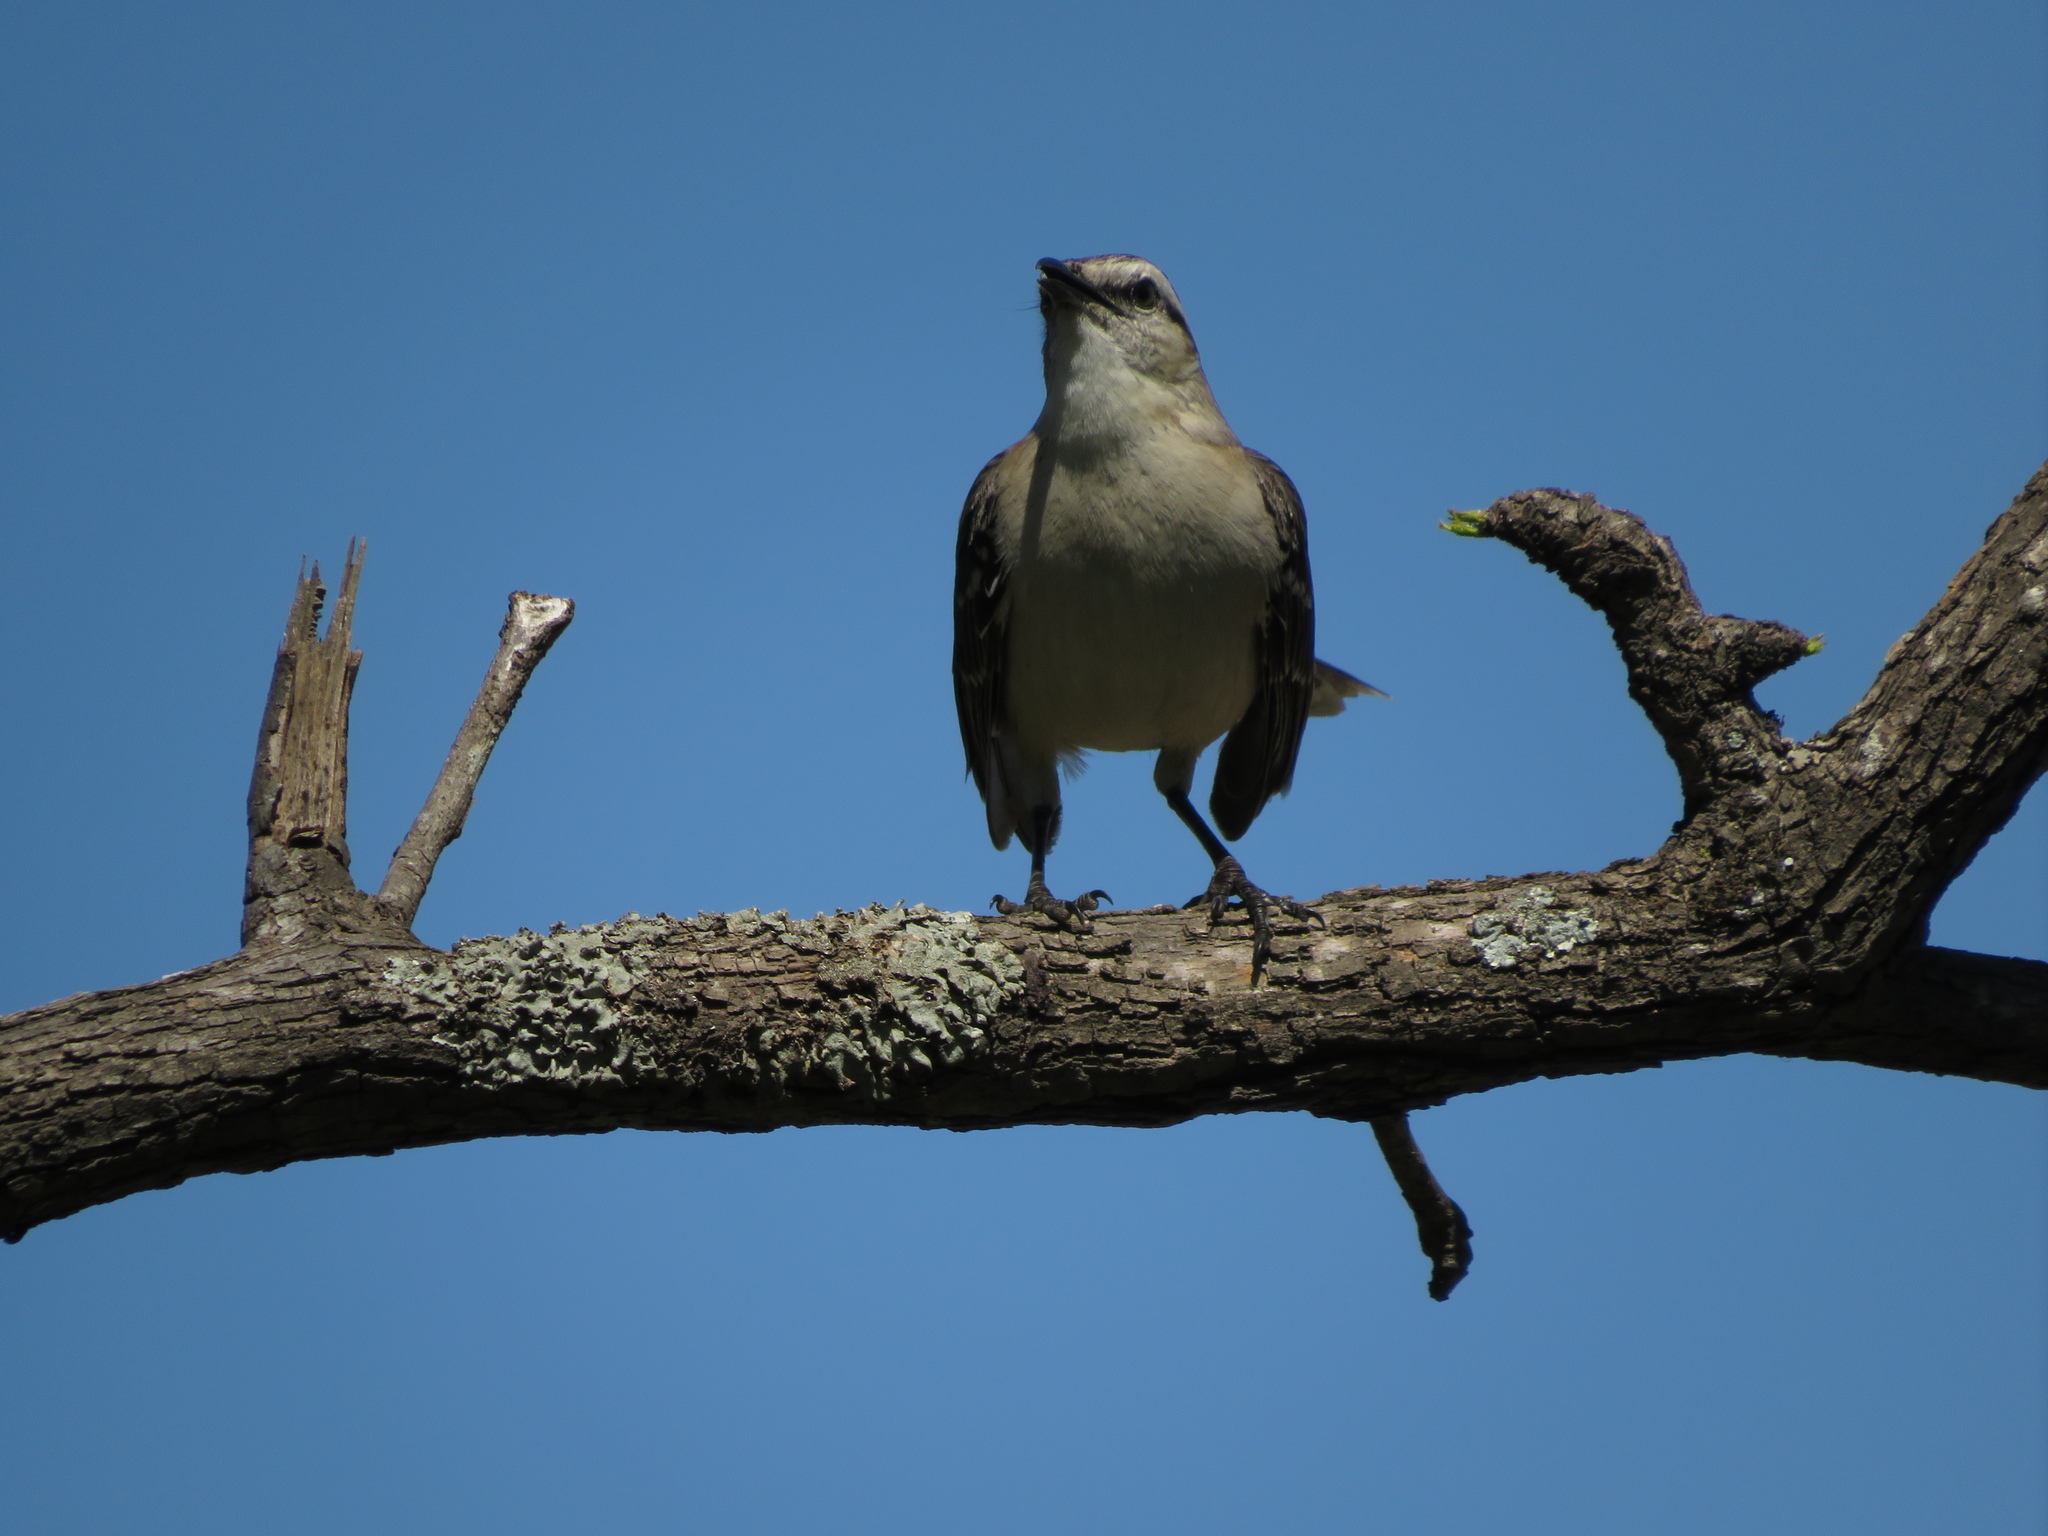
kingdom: Animalia
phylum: Chordata
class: Aves
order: Passeriformes
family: Mimidae
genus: Mimus
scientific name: Mimus saturninus
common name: Chalk-browed mockingbird
